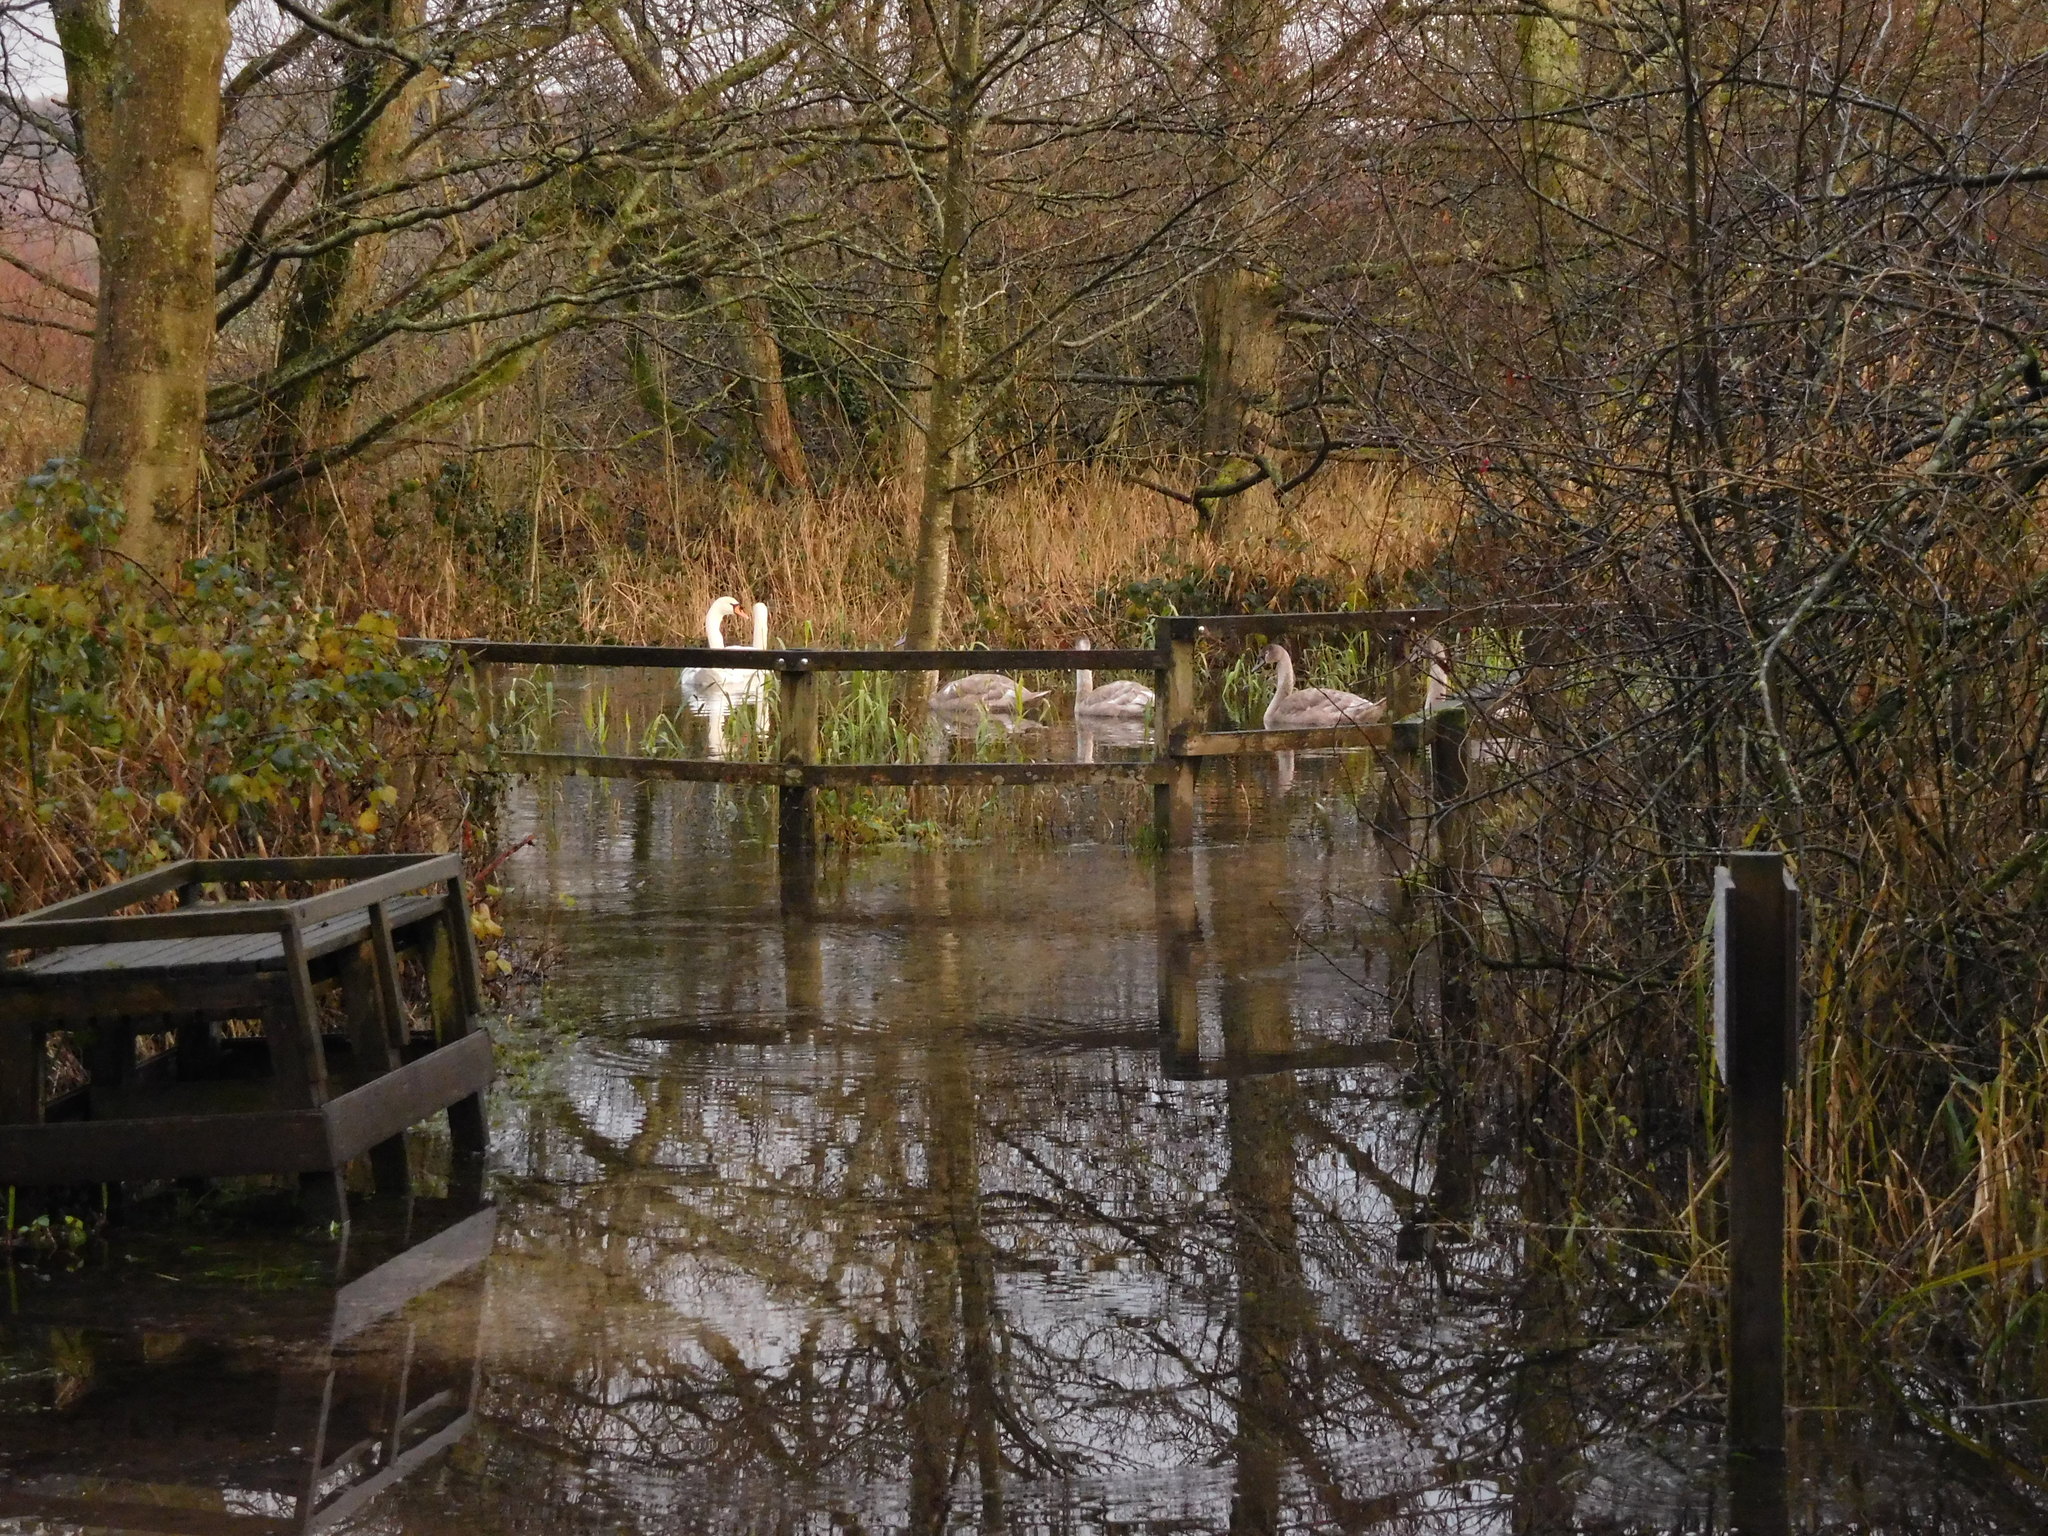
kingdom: Animalia
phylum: Chordata
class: Aves
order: Anseriformes
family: Anatidae
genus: Cygnus
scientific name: Cygnus olor
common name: Mute swan
